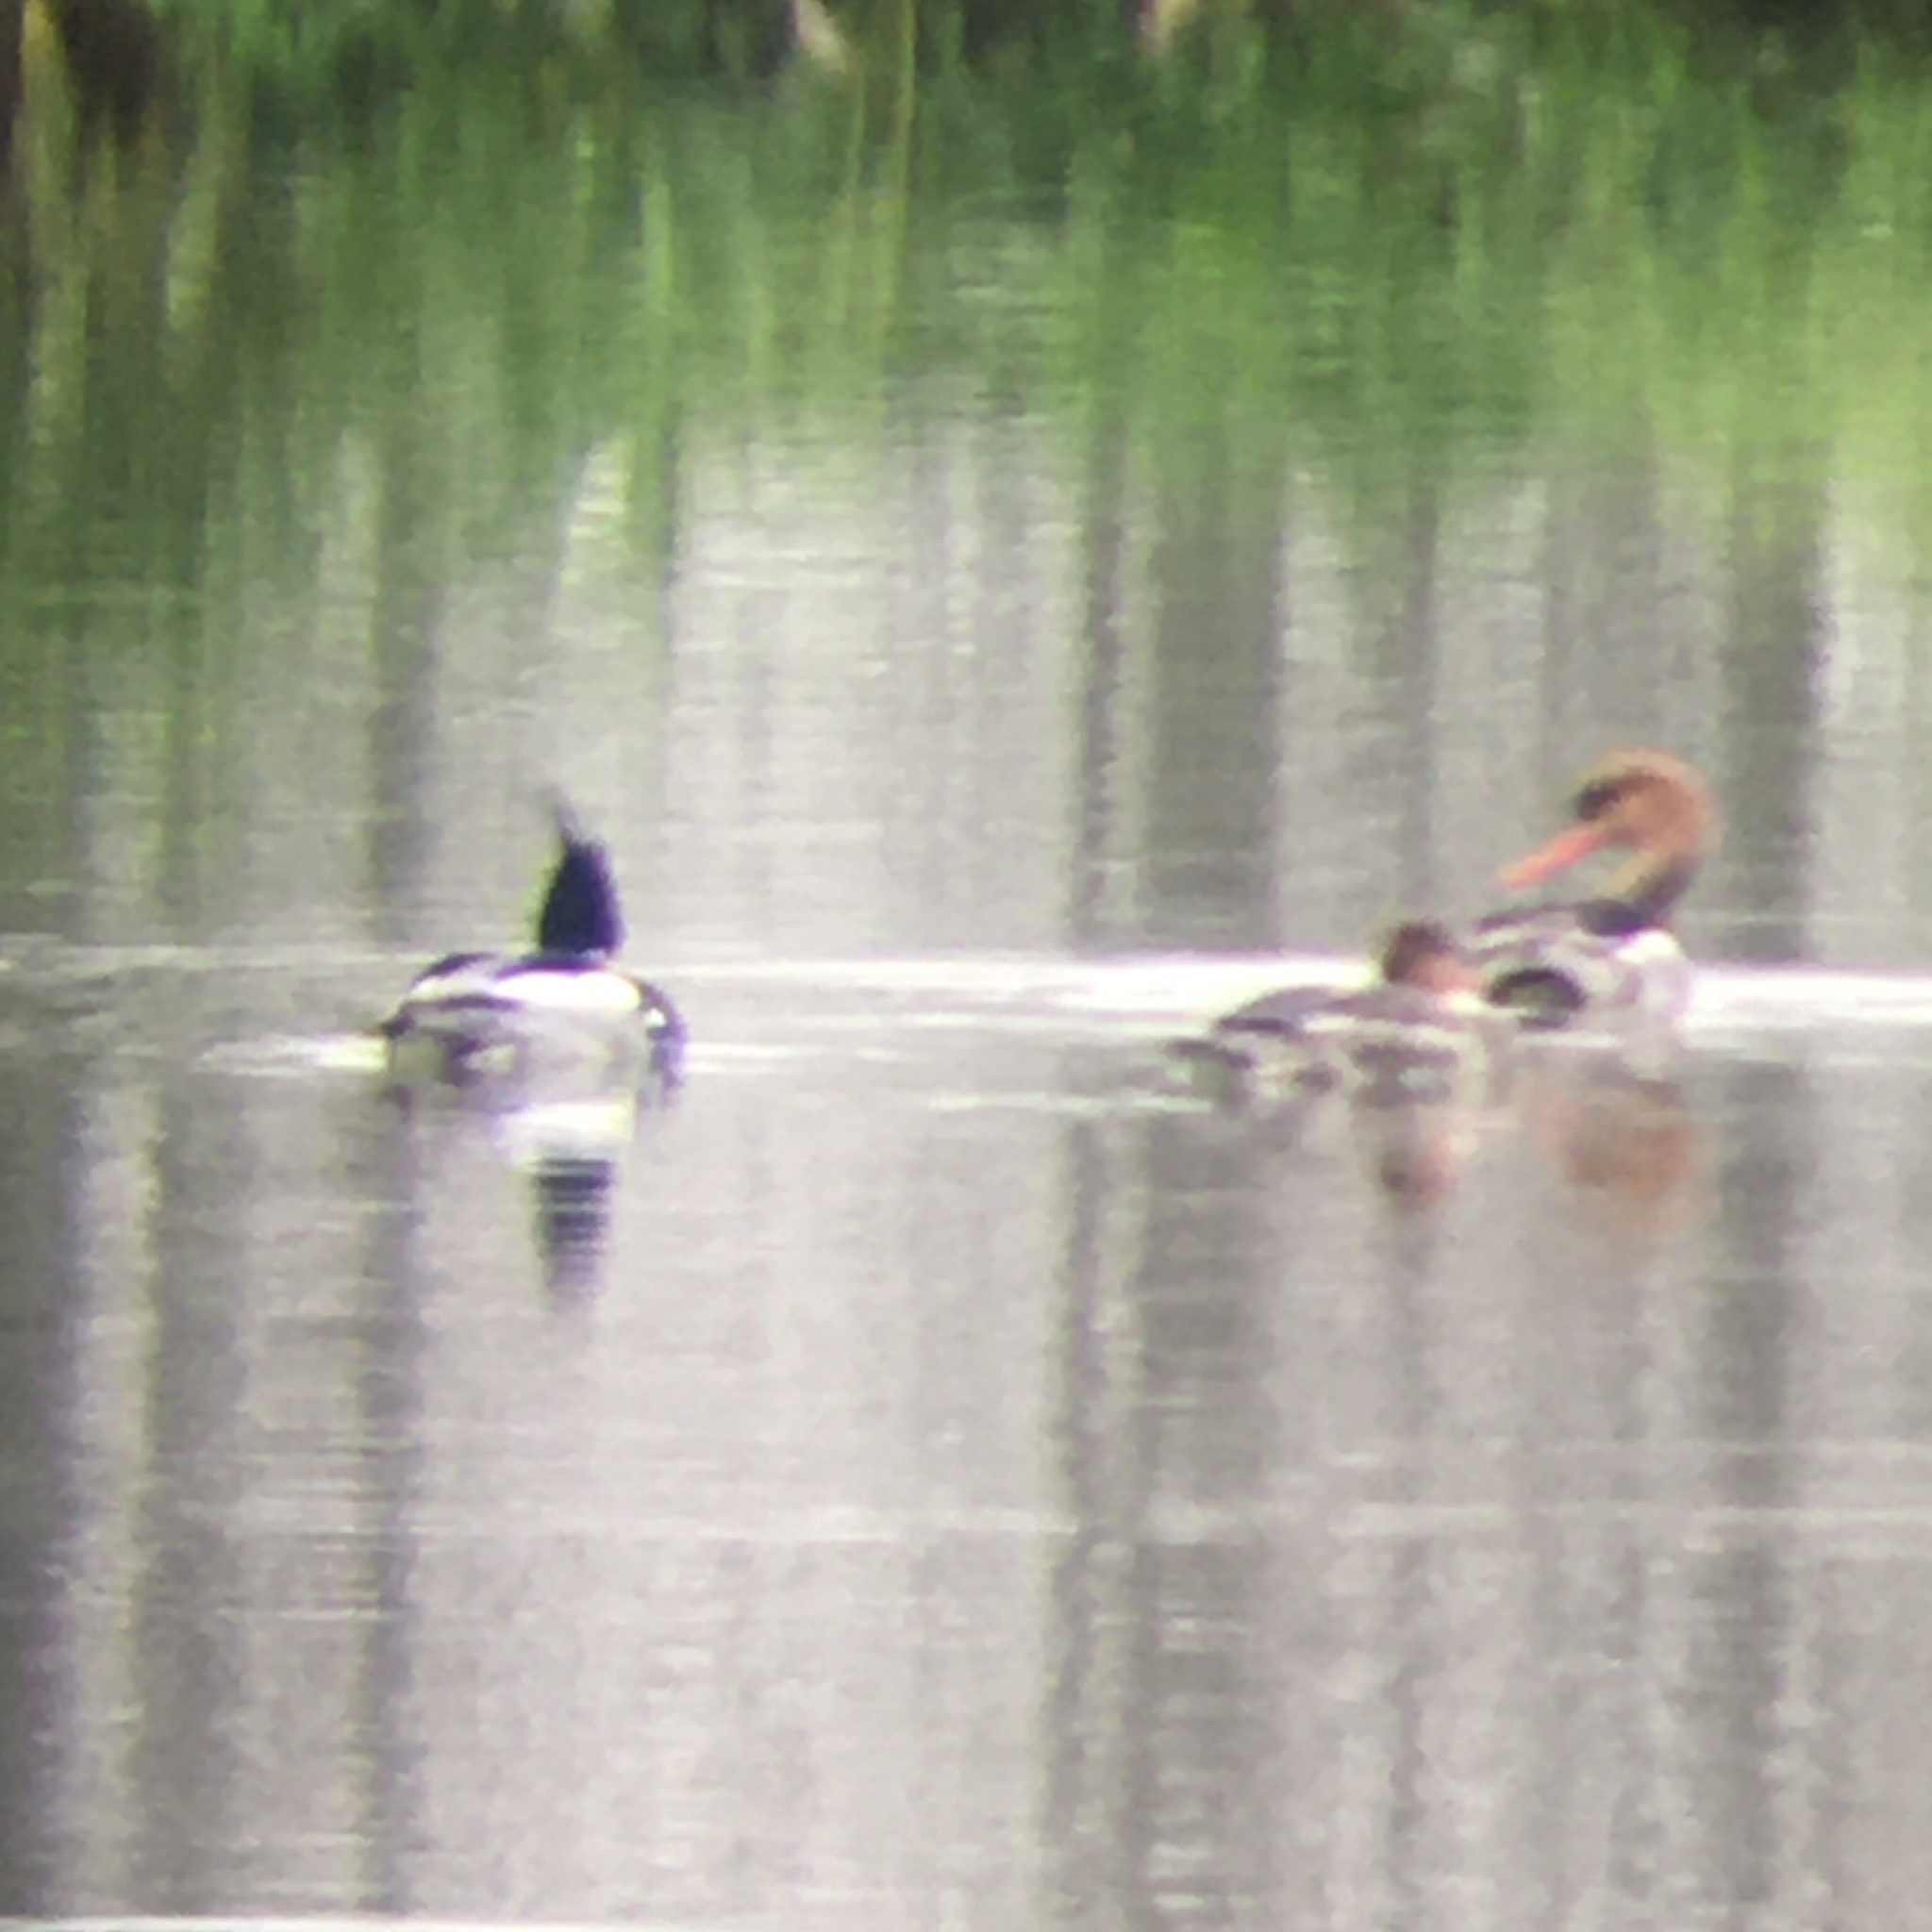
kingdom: Animalia
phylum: Chordata
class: Aves
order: Anseriformes
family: Anatidae
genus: Mergus
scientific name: Mergus serrator
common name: Red-breasted merganser
